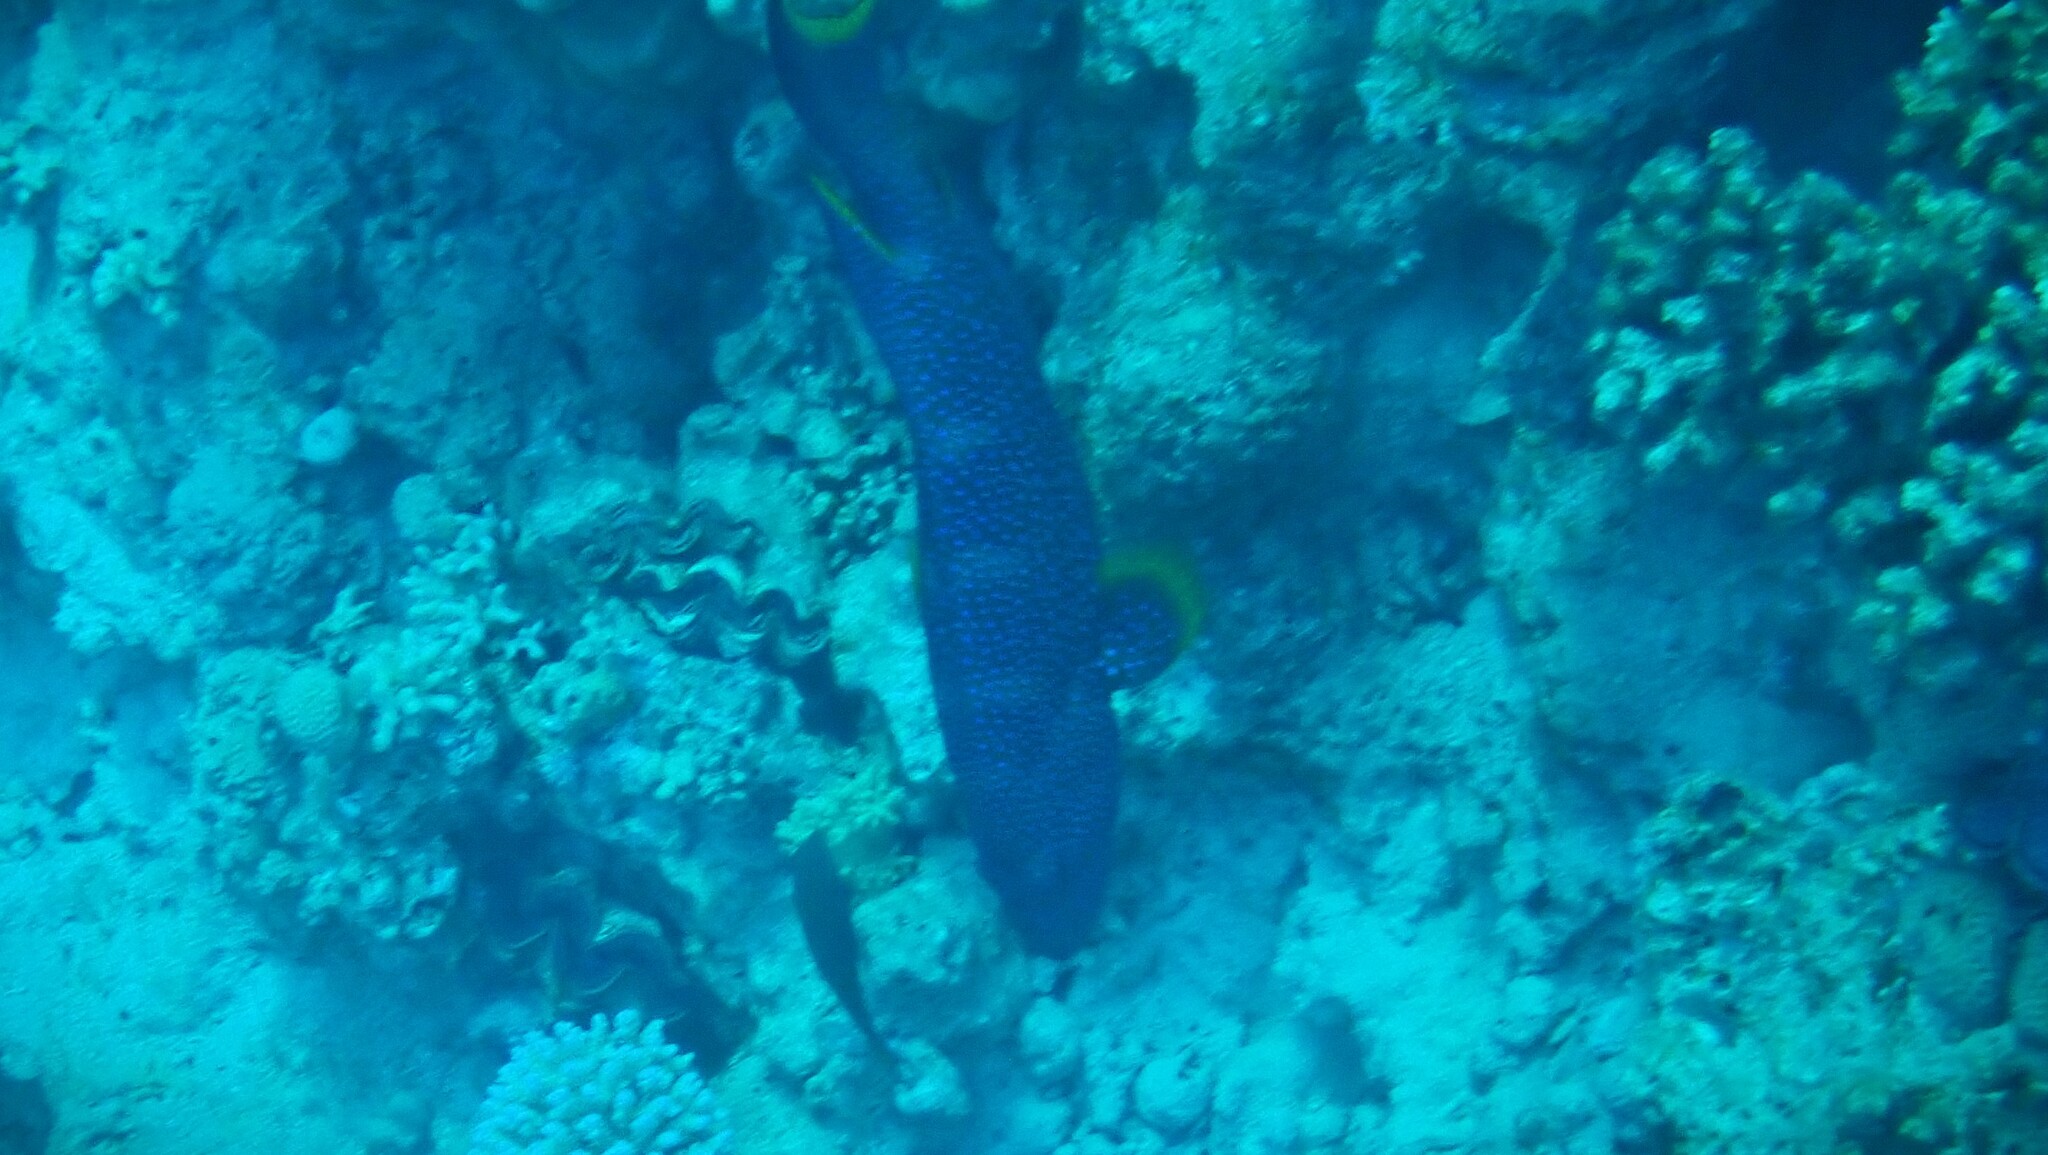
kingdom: Animalia
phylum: Chordata
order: Perciformes
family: Serranidae
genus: Variola
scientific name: Variola louti
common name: Yellow-edged lyretail
